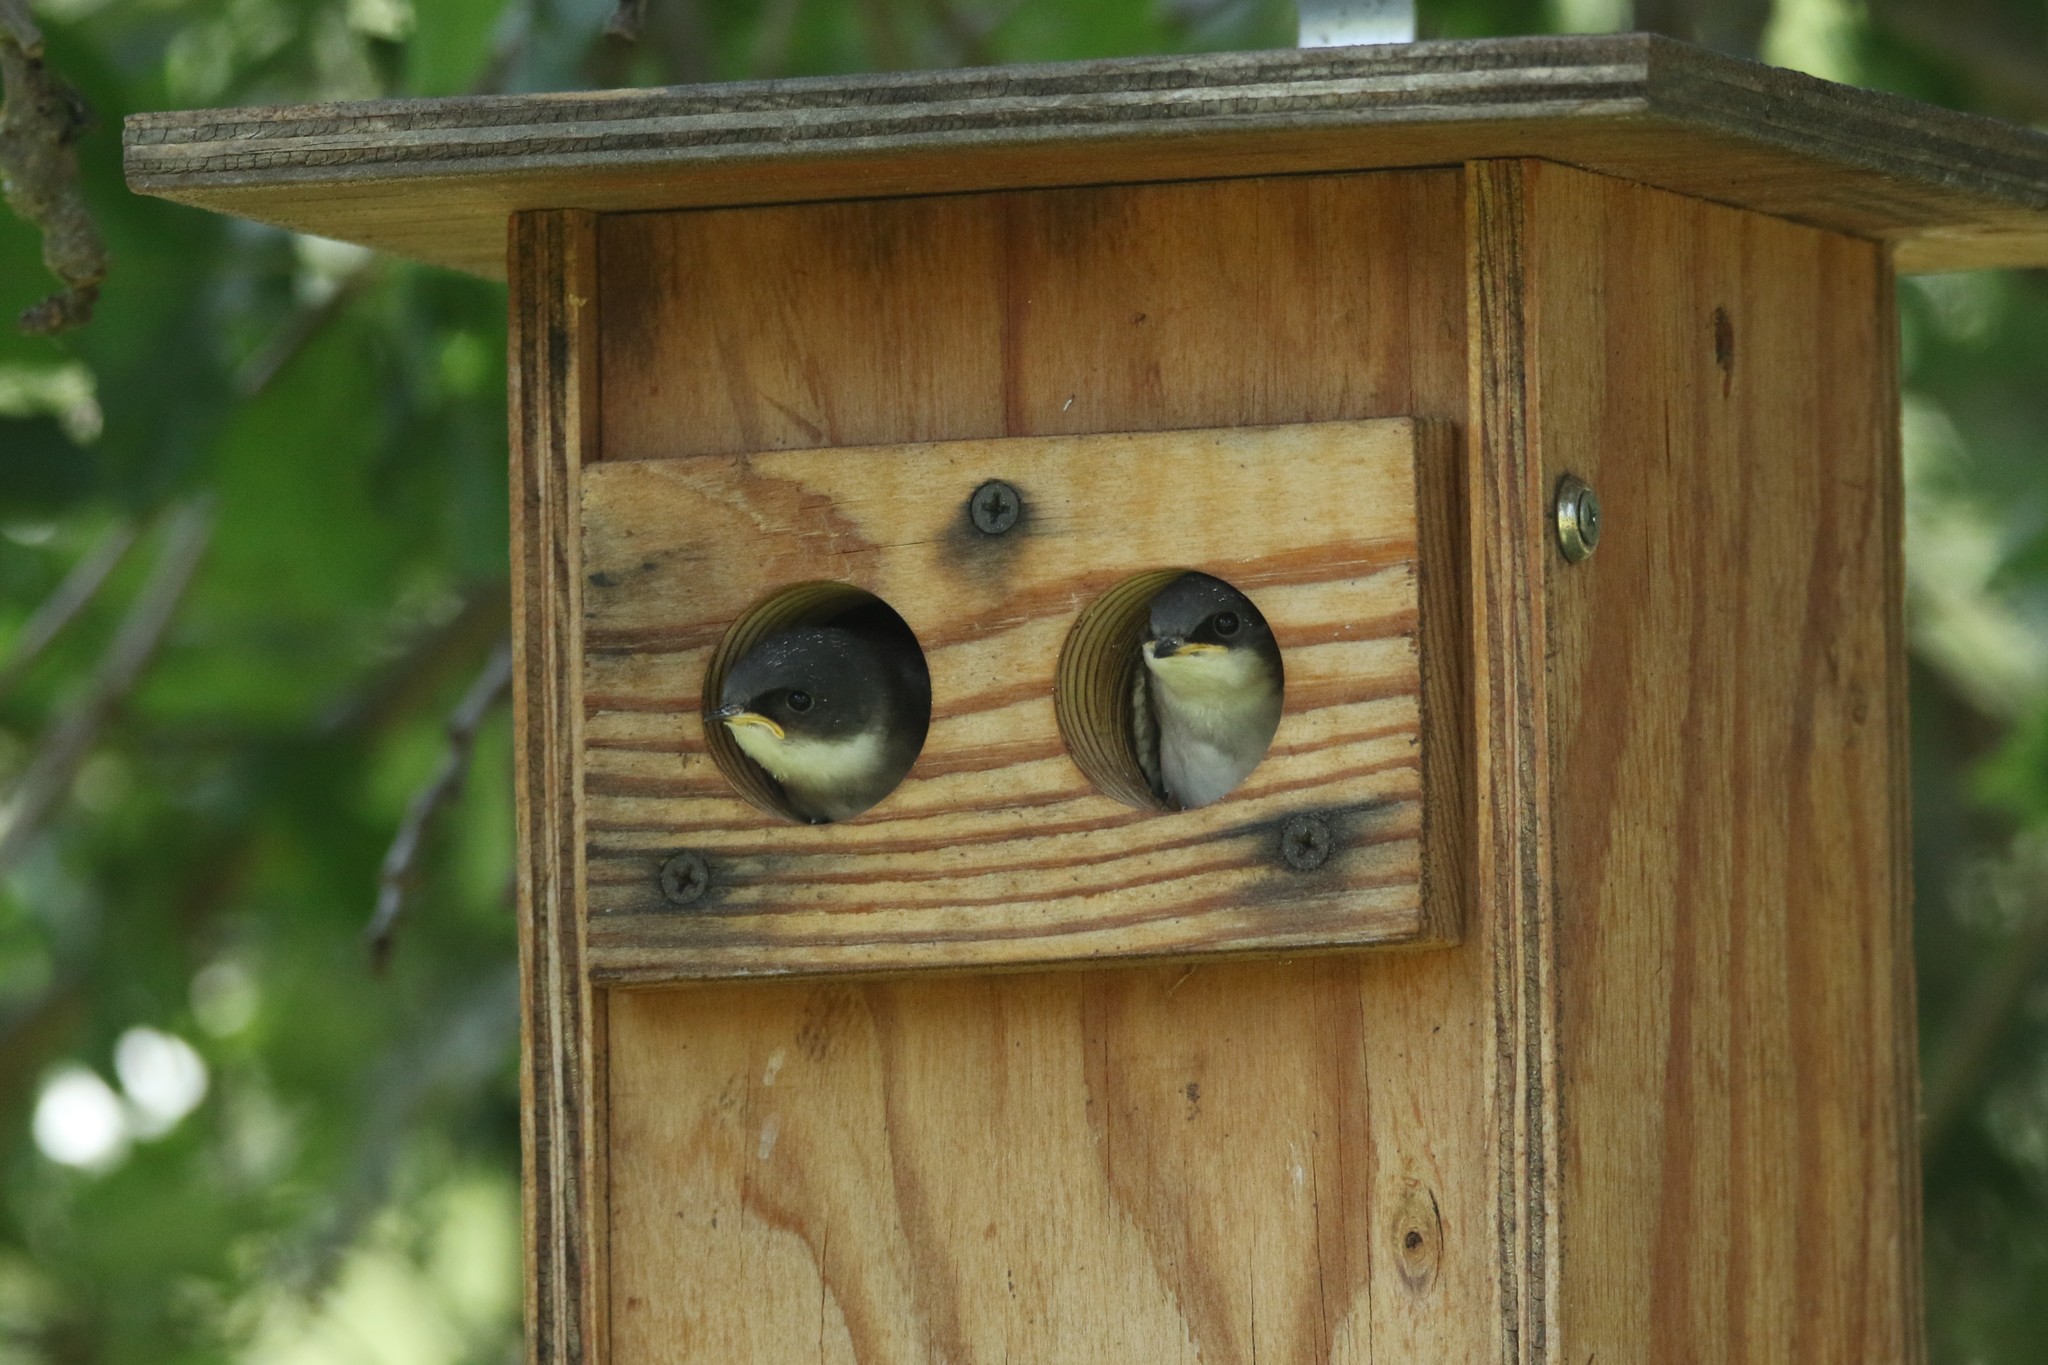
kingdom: Animalia
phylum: Chordata
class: Aves
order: Passeriformes
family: Hirundinidae
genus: Tachycineta
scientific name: Tachycineta bicolor
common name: Tree swallow
